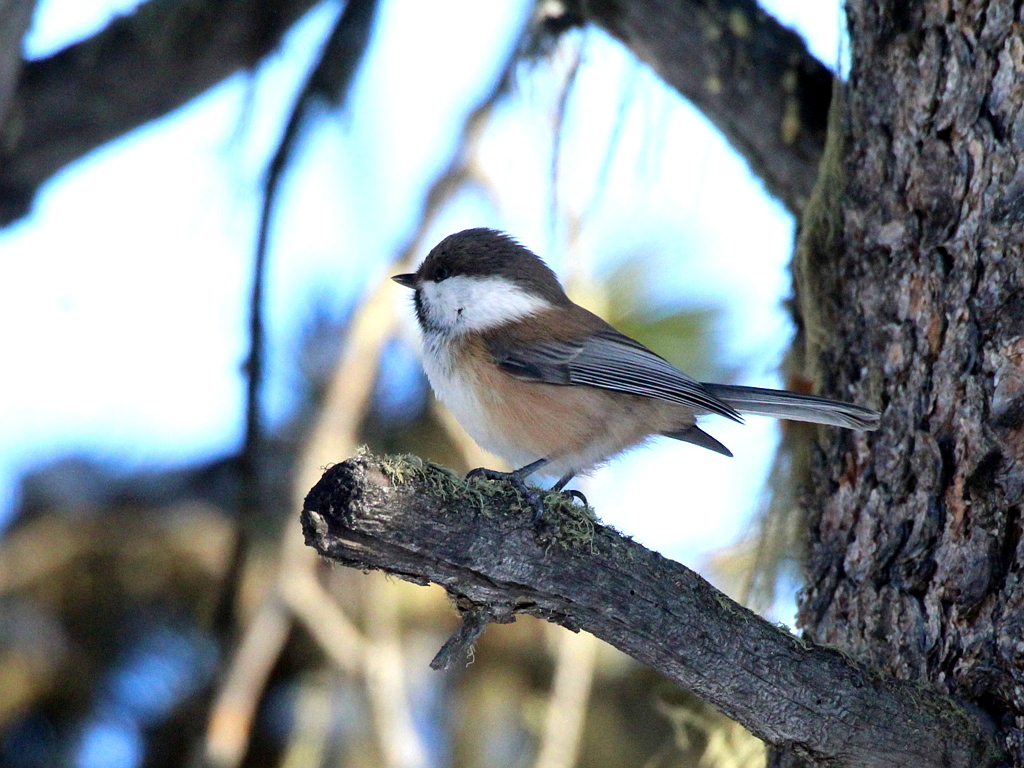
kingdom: Animalia
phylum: Chordata
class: Aves
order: Passeriformes
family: Paridae
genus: Poecile
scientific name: Poecile cinctus
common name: Gray-headed chickadee
